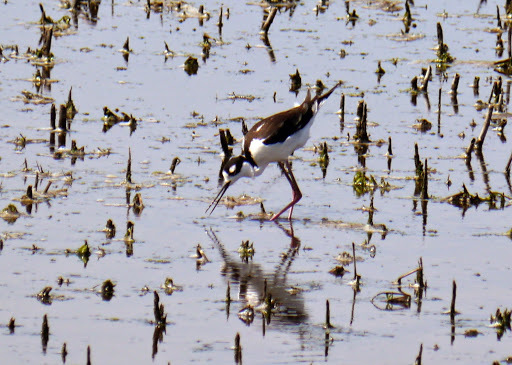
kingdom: Animalia
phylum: Chordata
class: Aves
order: Charadriiformes
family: Recurvirostridae
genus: Himantopus
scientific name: Himantopus mexicanus
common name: Black-necked stilt
